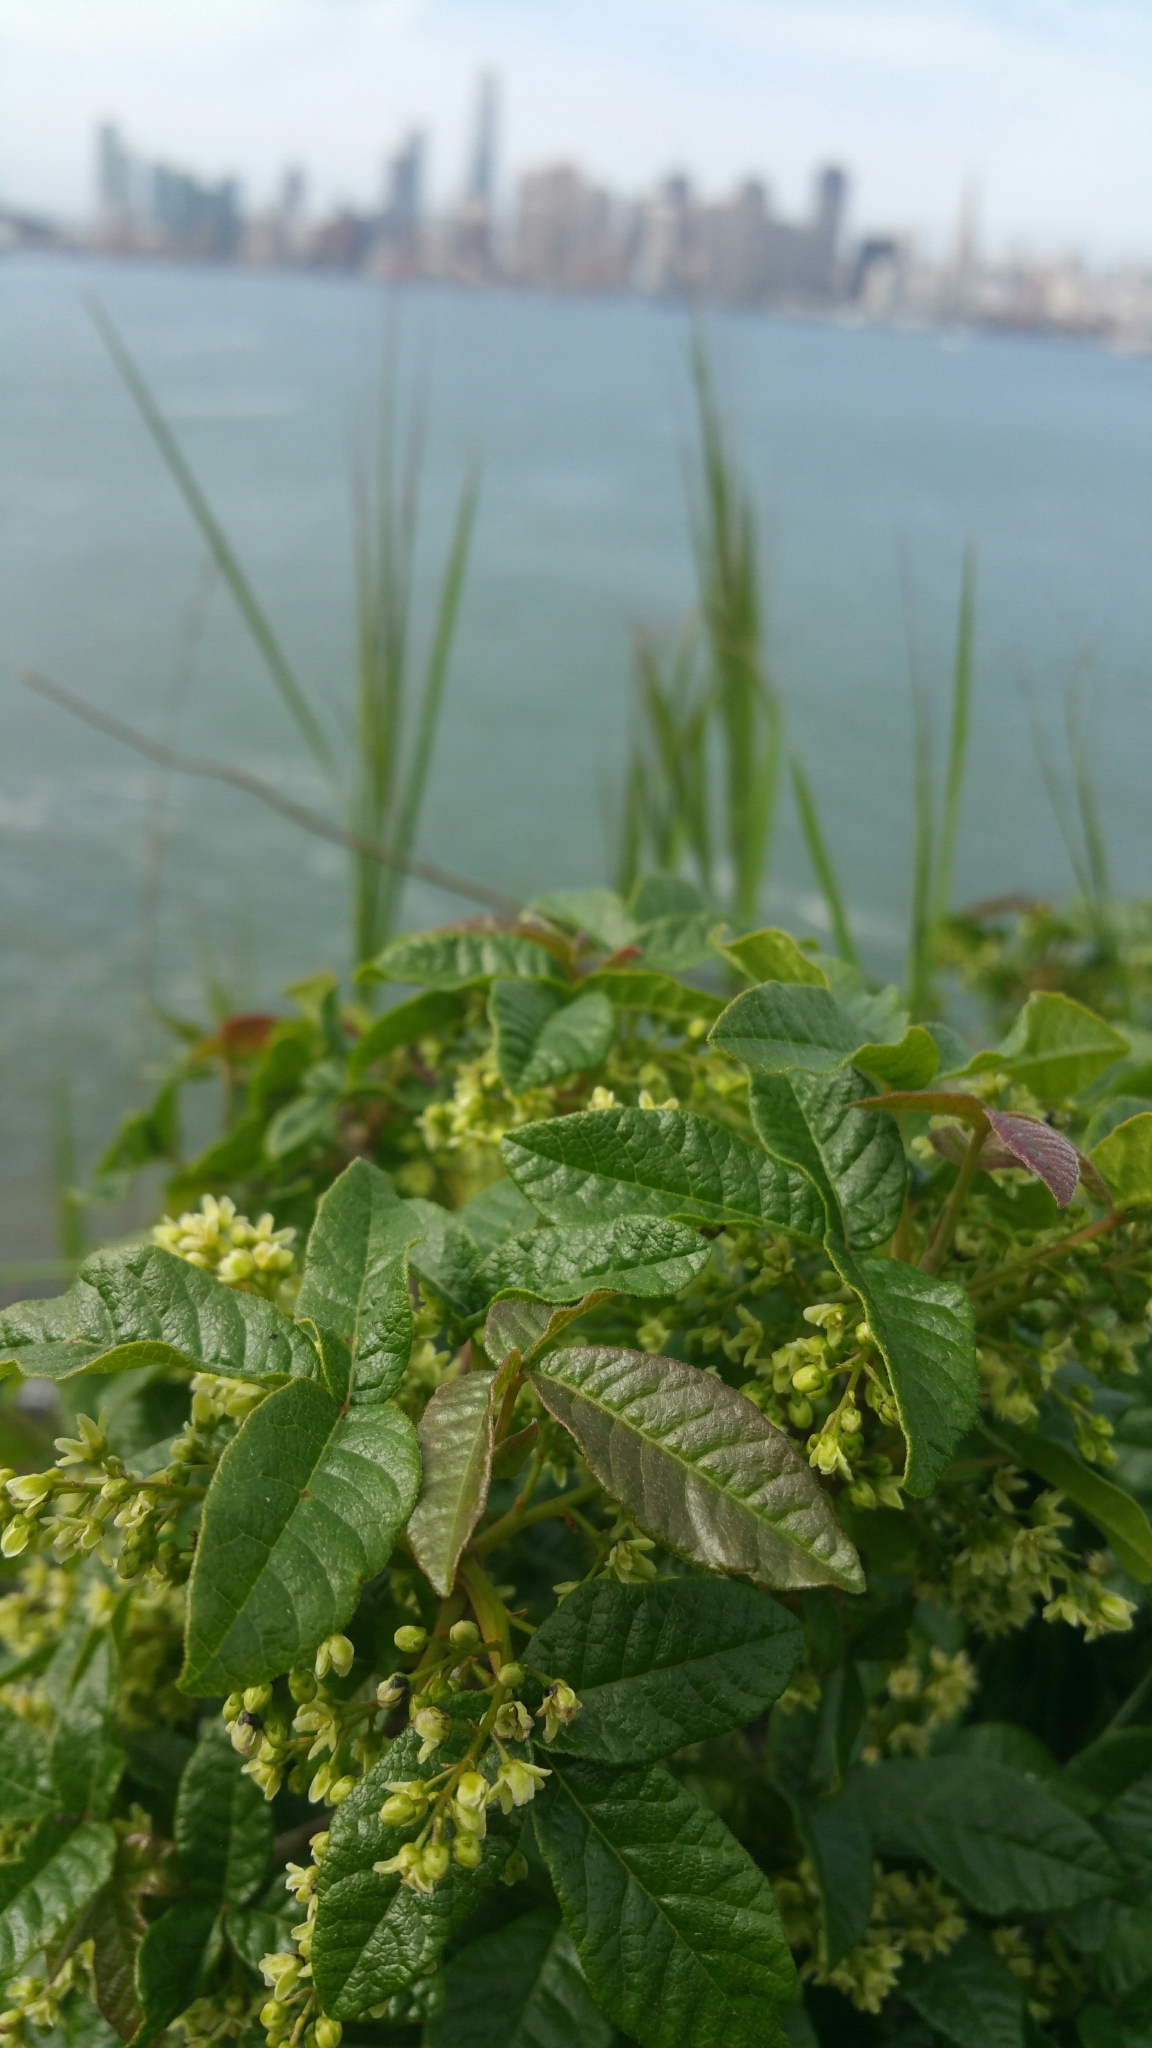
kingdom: Plantae
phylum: Tracheophyta
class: Magnoliopsida
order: Sapindales
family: Anacardiaceae
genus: Toxicodendron
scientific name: Toxicodendron diversilobum
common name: Pacific poison-oak
